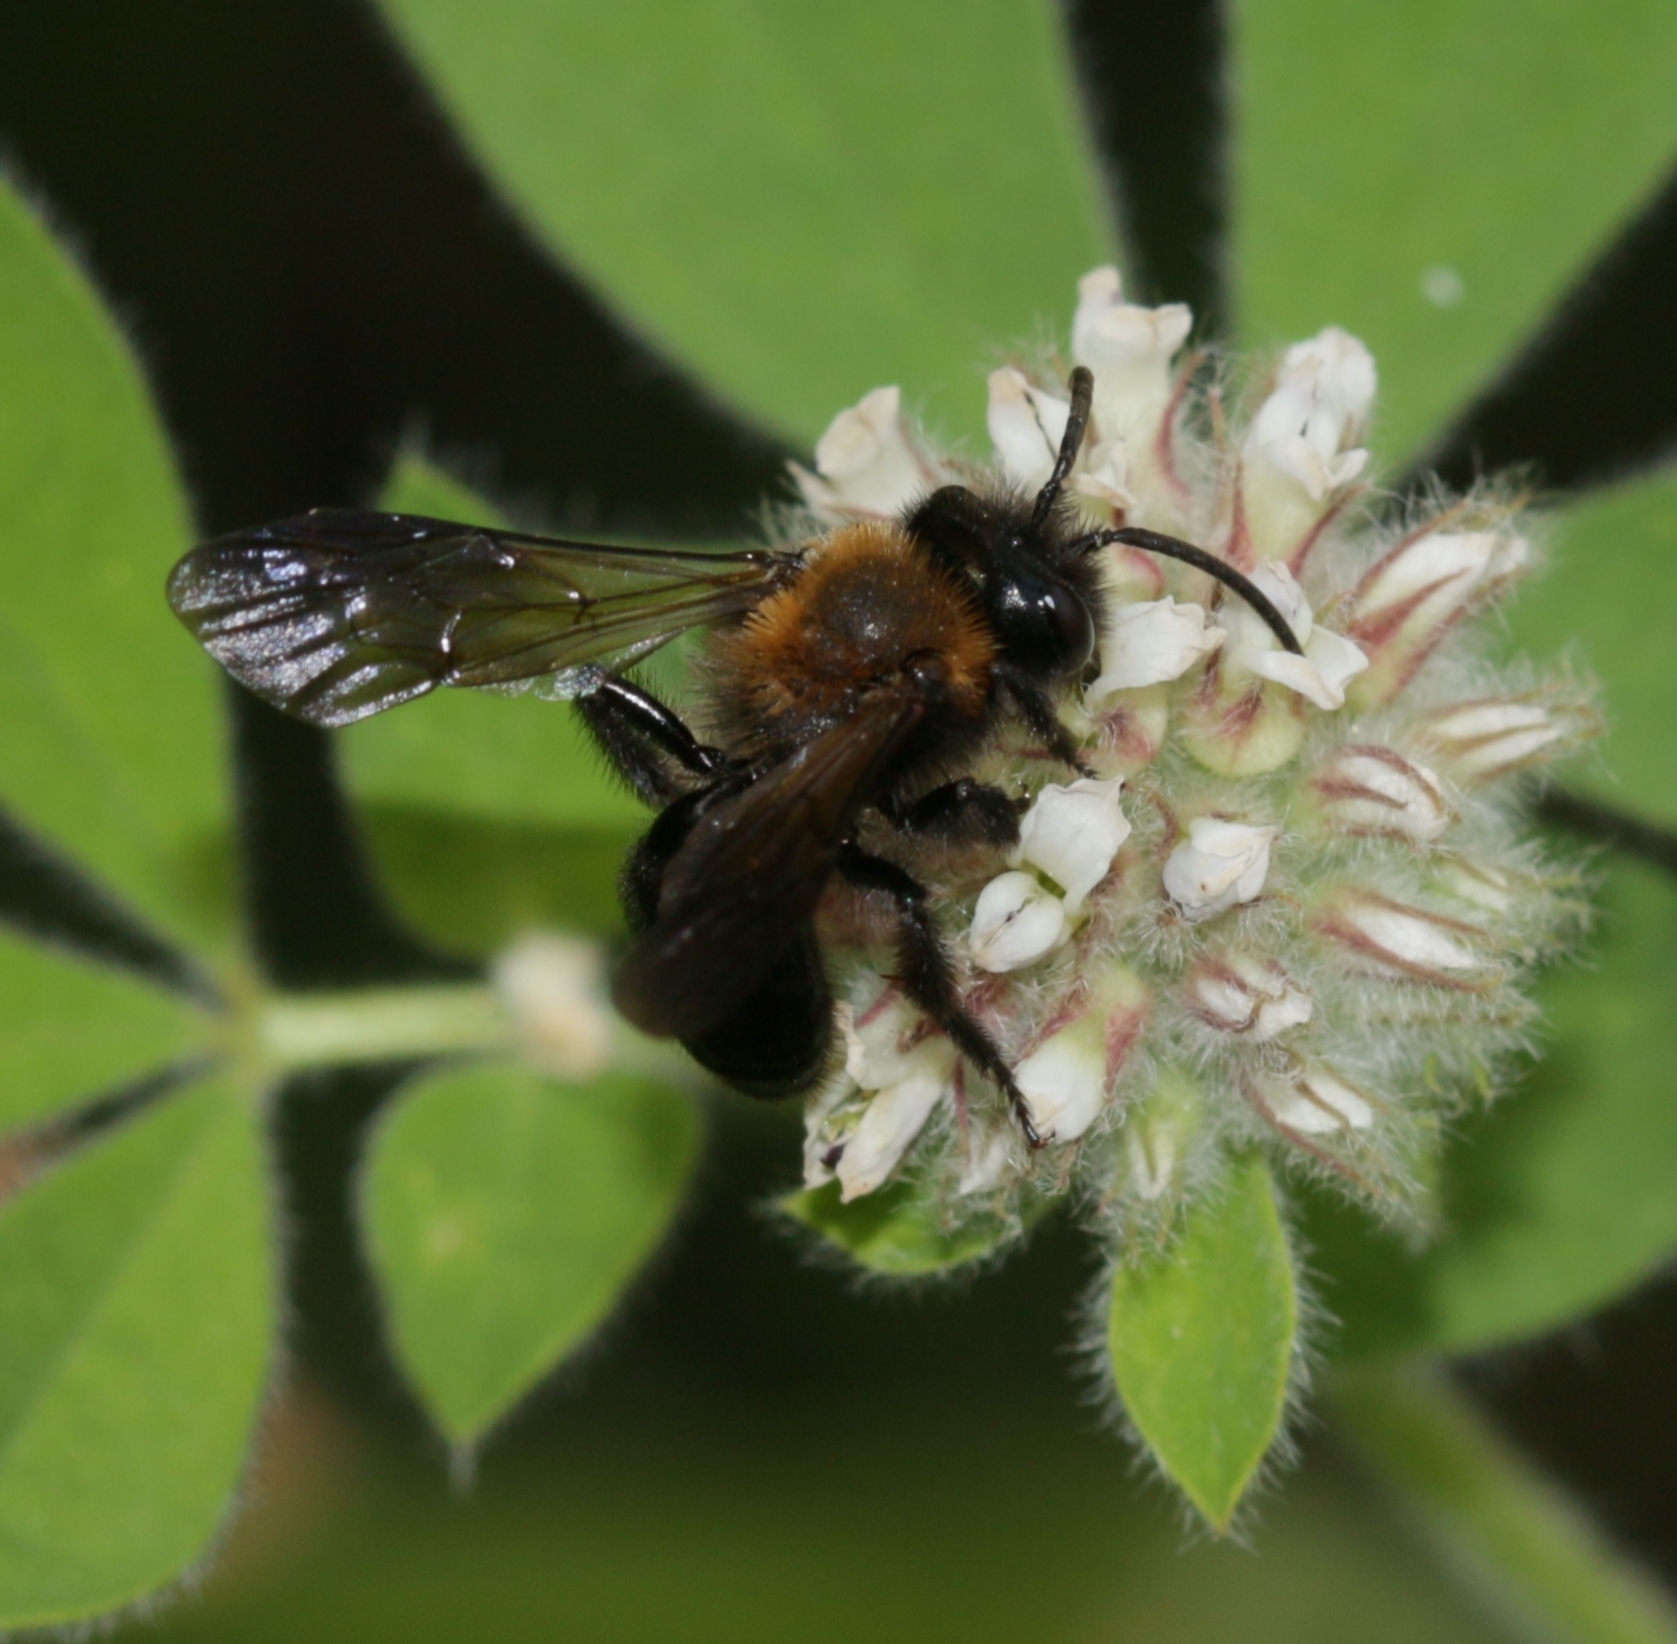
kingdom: Animalia
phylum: Arthropoda
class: Insecta
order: Hymenoptera
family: Andrenidae
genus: Andrena
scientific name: Andrena thoracica
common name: Cliff mining bee
